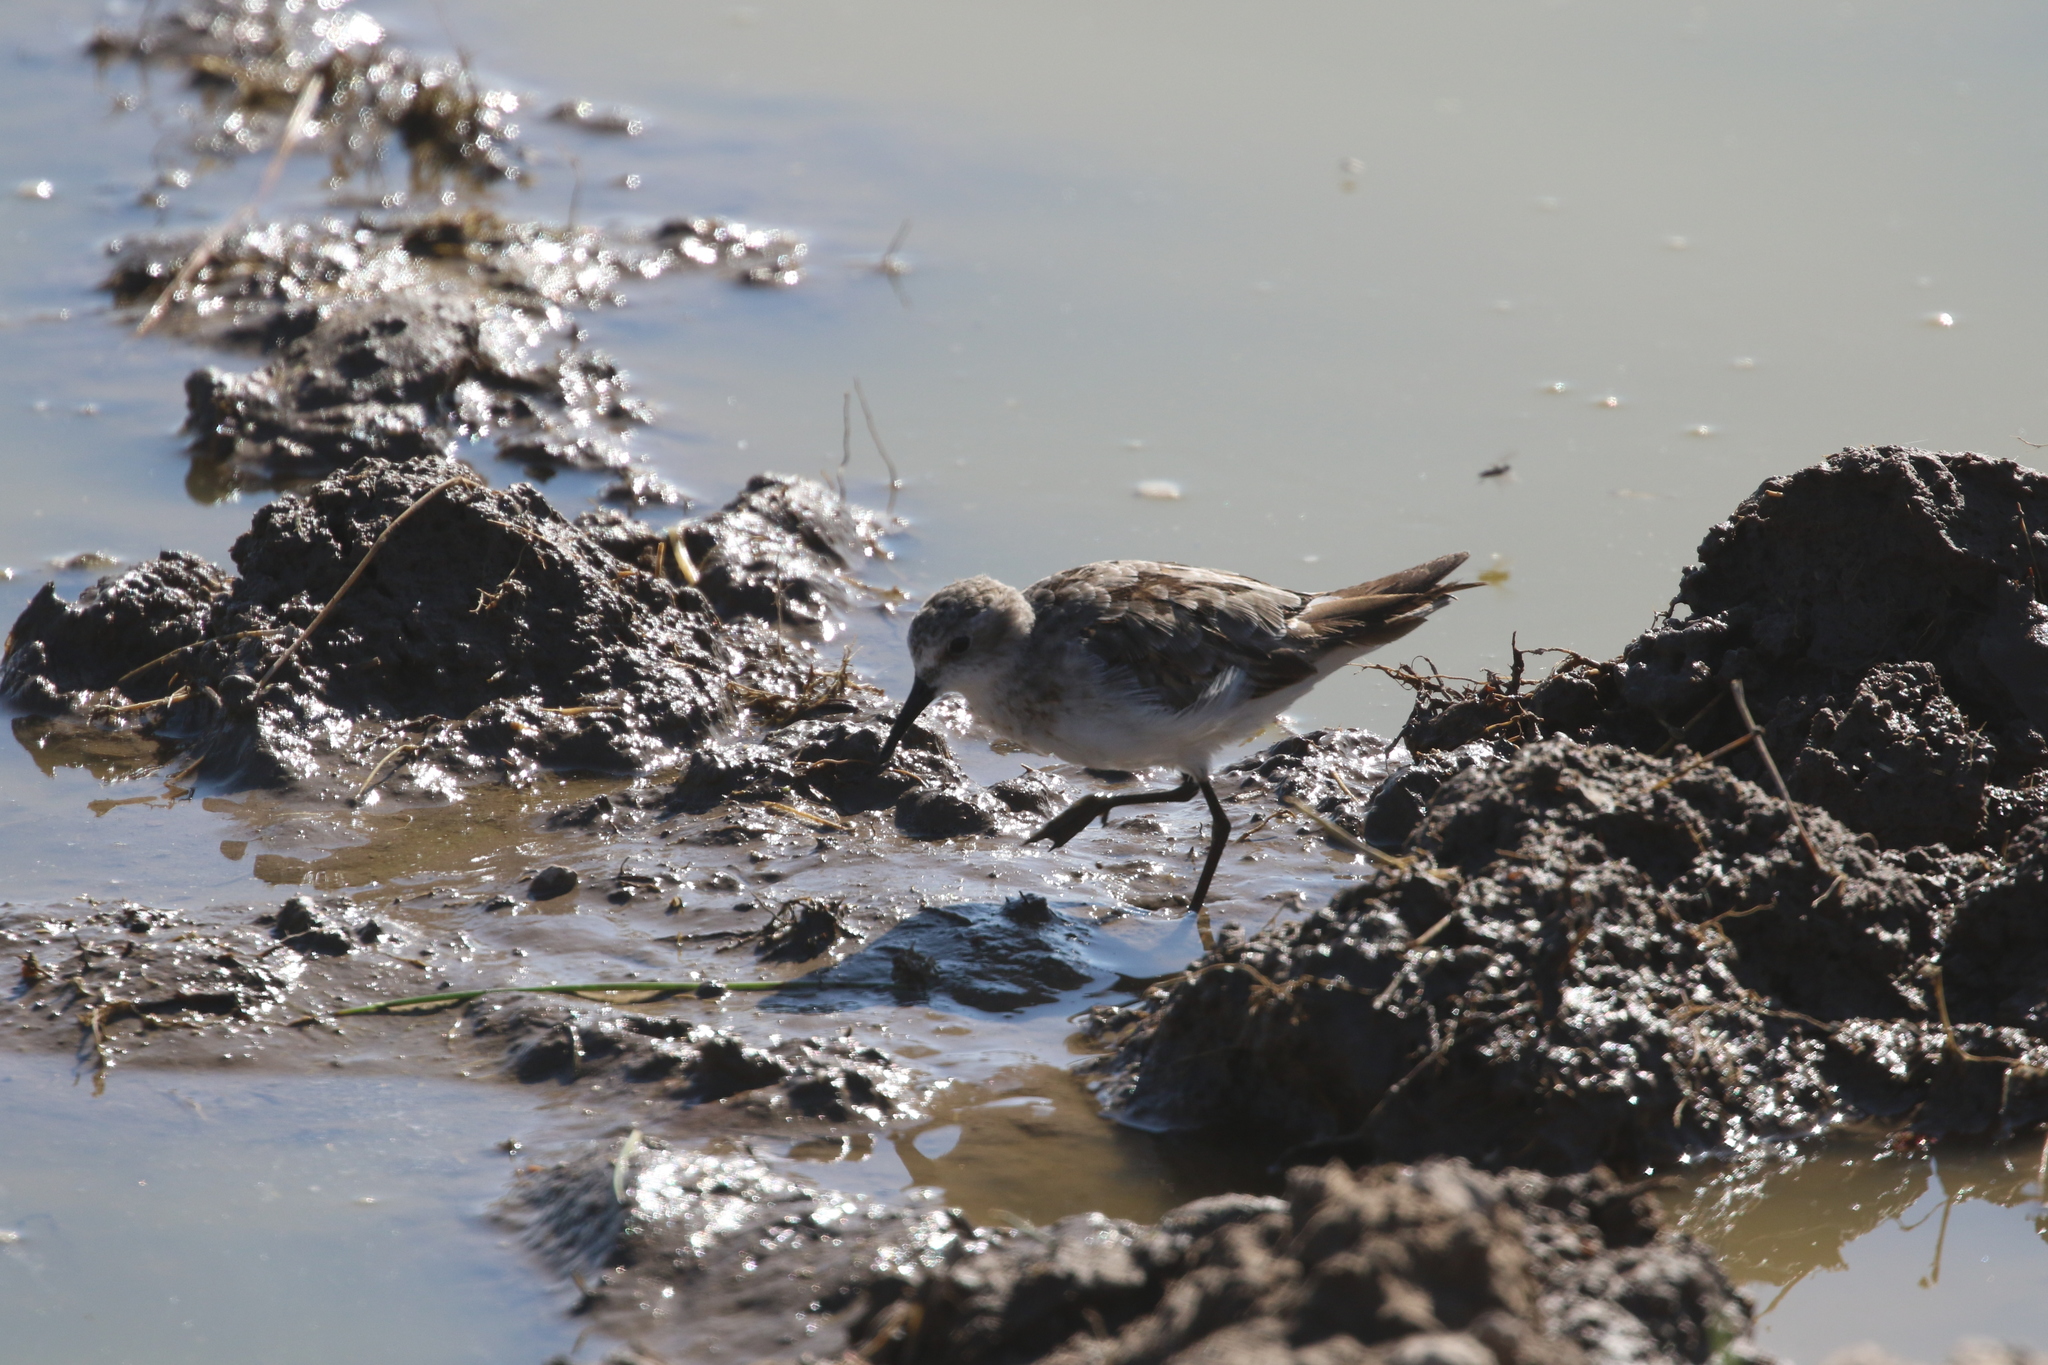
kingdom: Animalia
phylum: Chordata
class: Aves
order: Charadriiformes
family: Scolopacidae
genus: Calidris
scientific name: Calidris minuta
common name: Little stint
